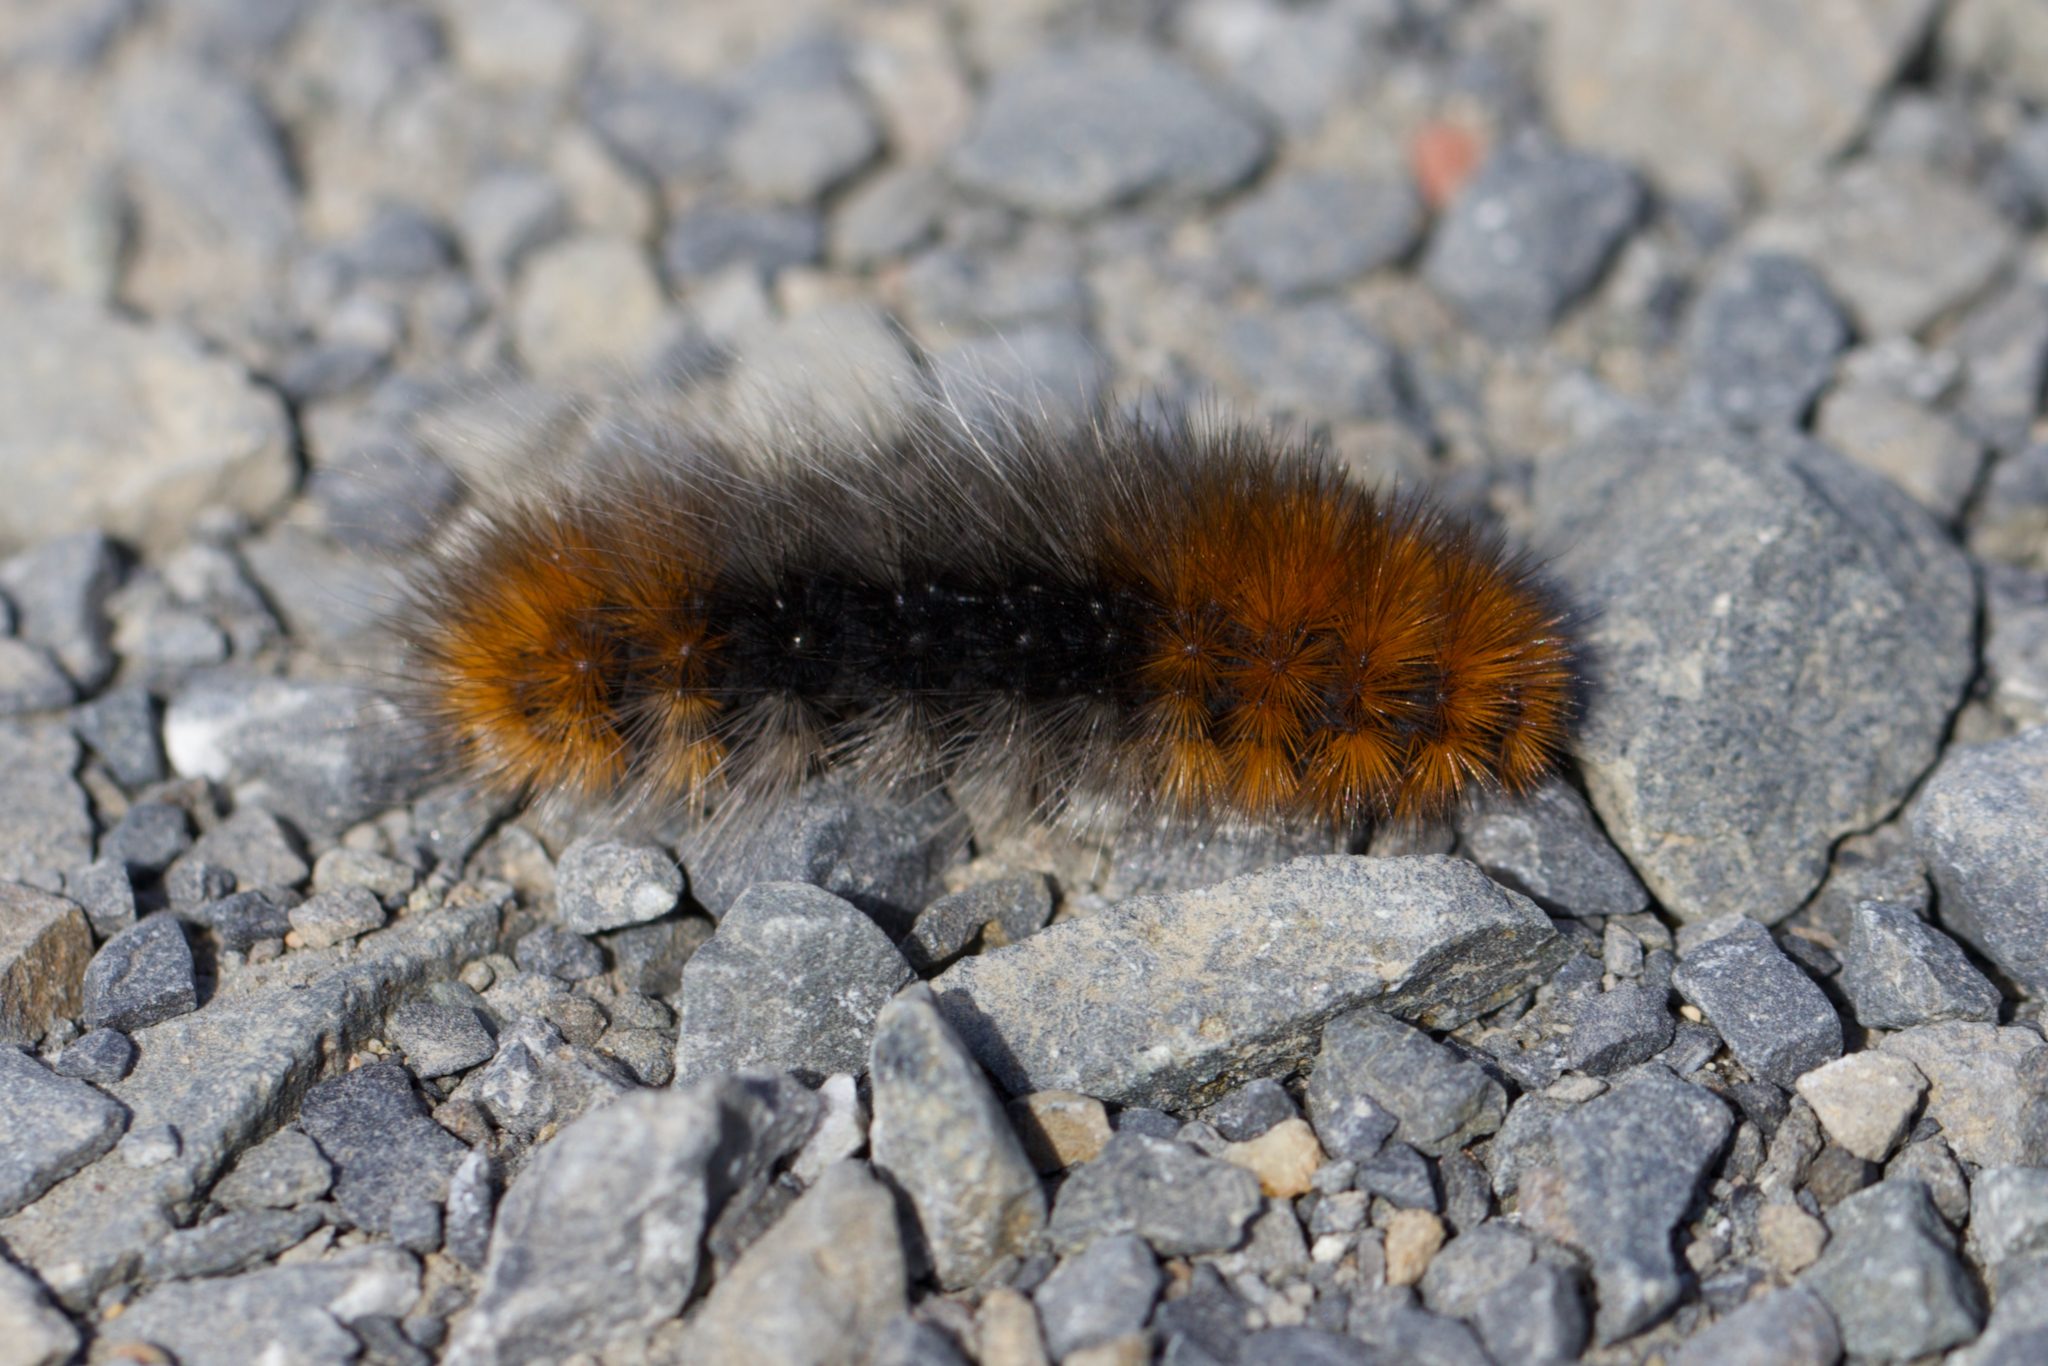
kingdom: Animalia
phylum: Arthropoda
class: Insecta
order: Lepidoptera
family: Erebidae
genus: Arctia
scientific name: Arctia tigrina
